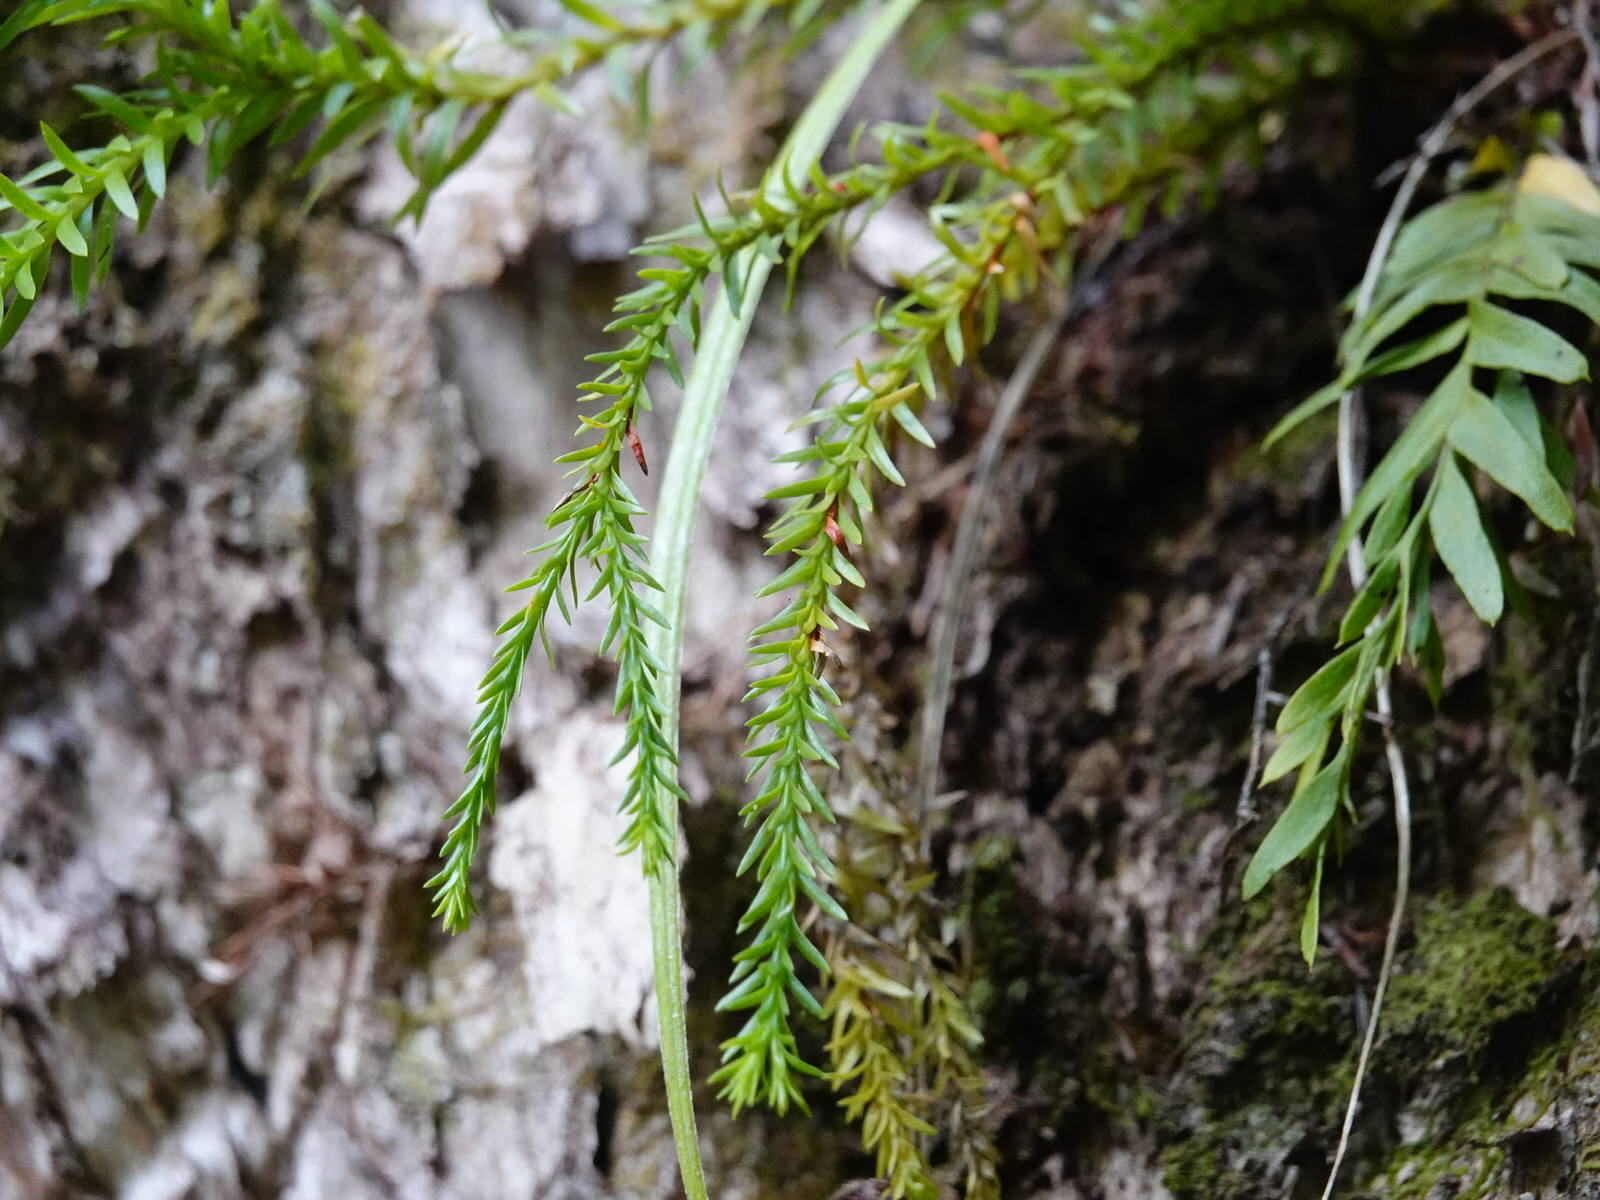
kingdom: Plantae
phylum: Tracheophyta
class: Lycopodiopsida
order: Lycopodiales
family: Lycopodiaceae
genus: Phlegmariurus
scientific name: Phlegmariurus billardierei
